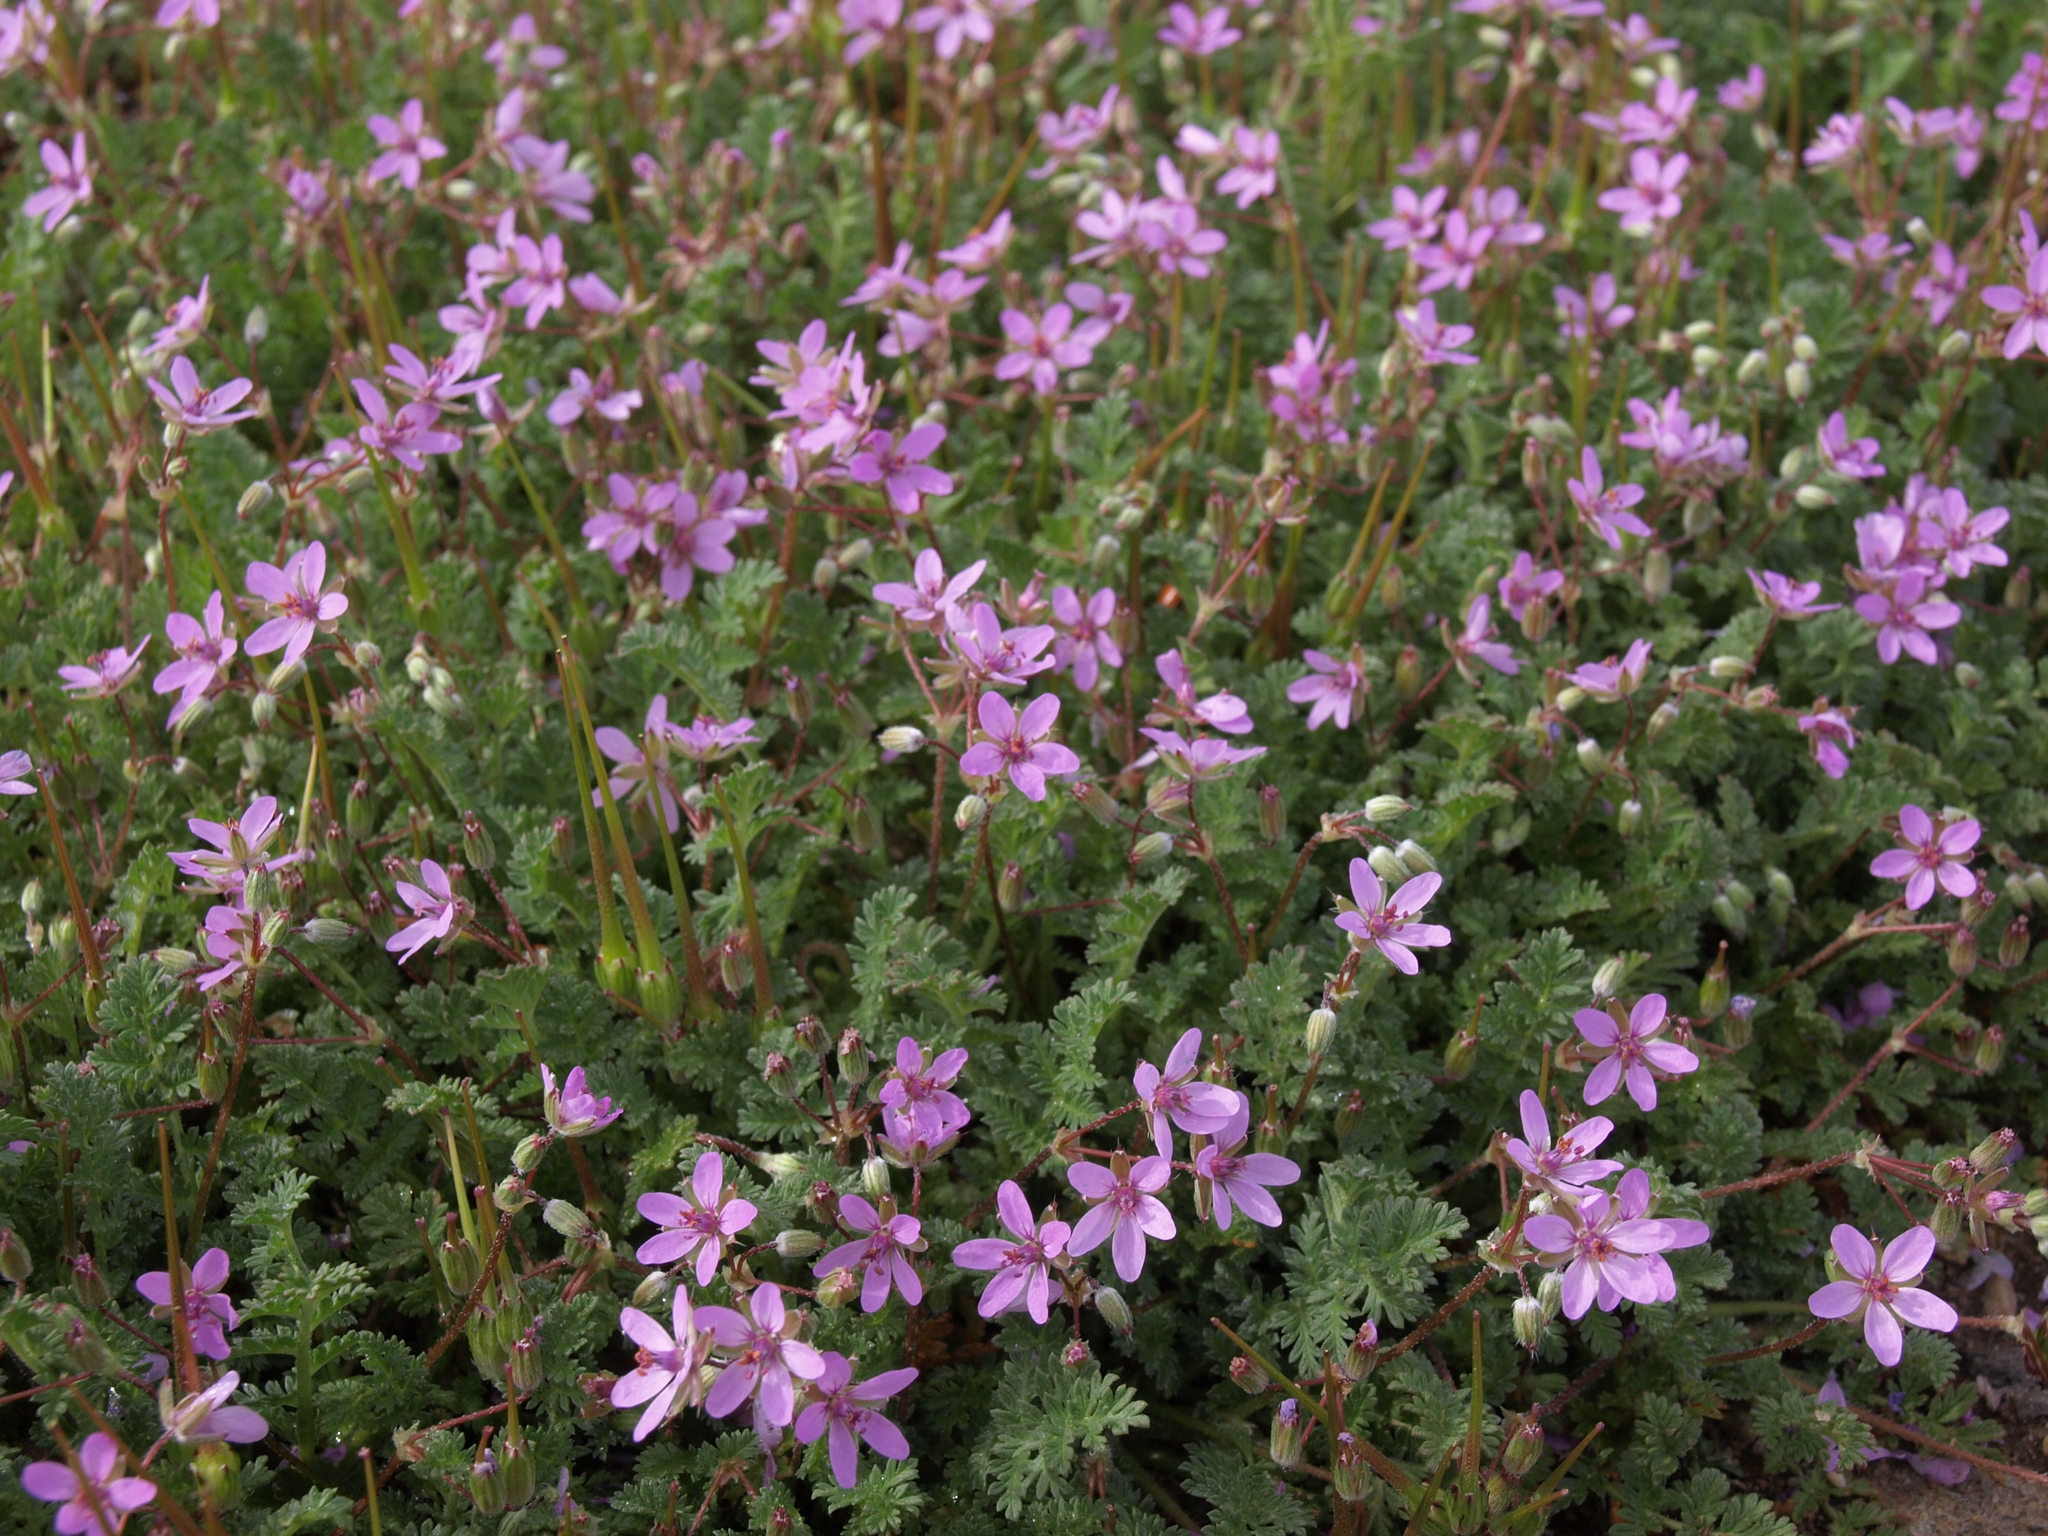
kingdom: Plantae
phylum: Tracheophyta
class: Magnoliopsida
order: Geraniales
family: Geraniaceae
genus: Erodium
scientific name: Erodium cicutarium
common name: Common stork's-bill
